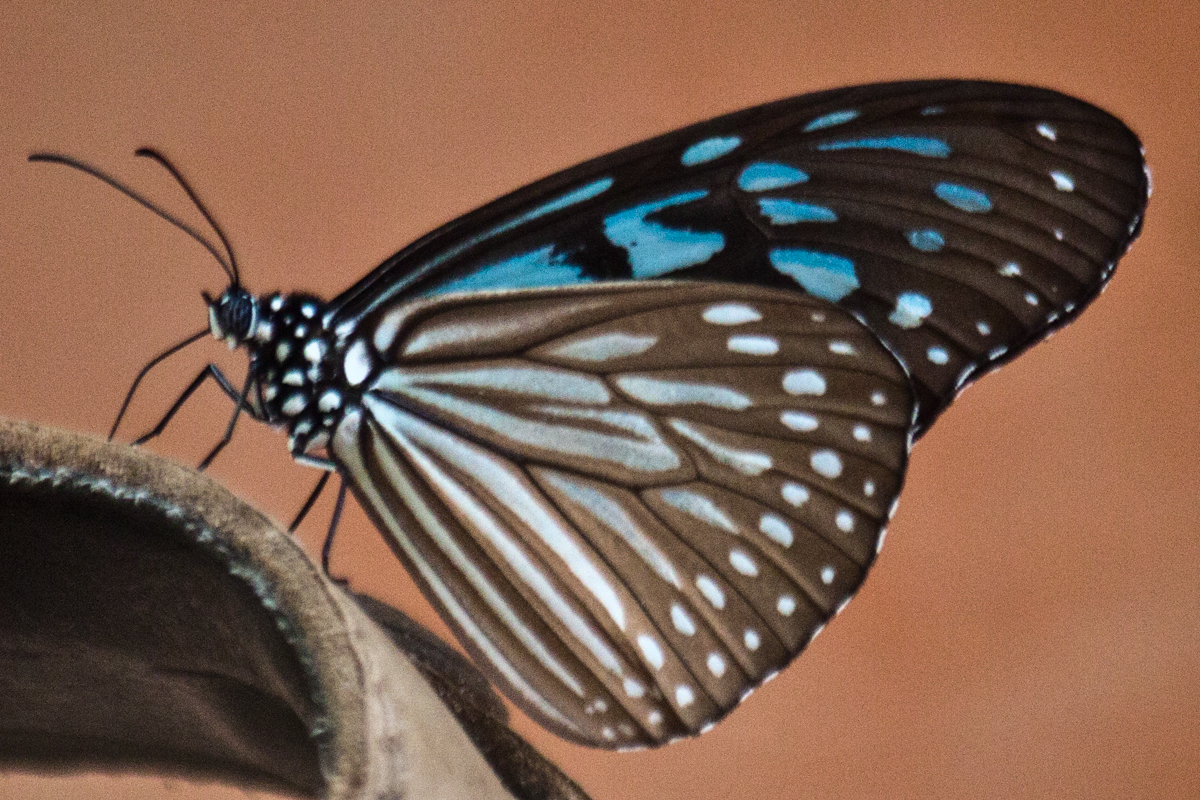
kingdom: Animalia
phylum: Arthropoda
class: Insecta
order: Lepidoptera
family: Nymphalidae
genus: Ideopsis
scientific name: Ideopsis vulgaris
